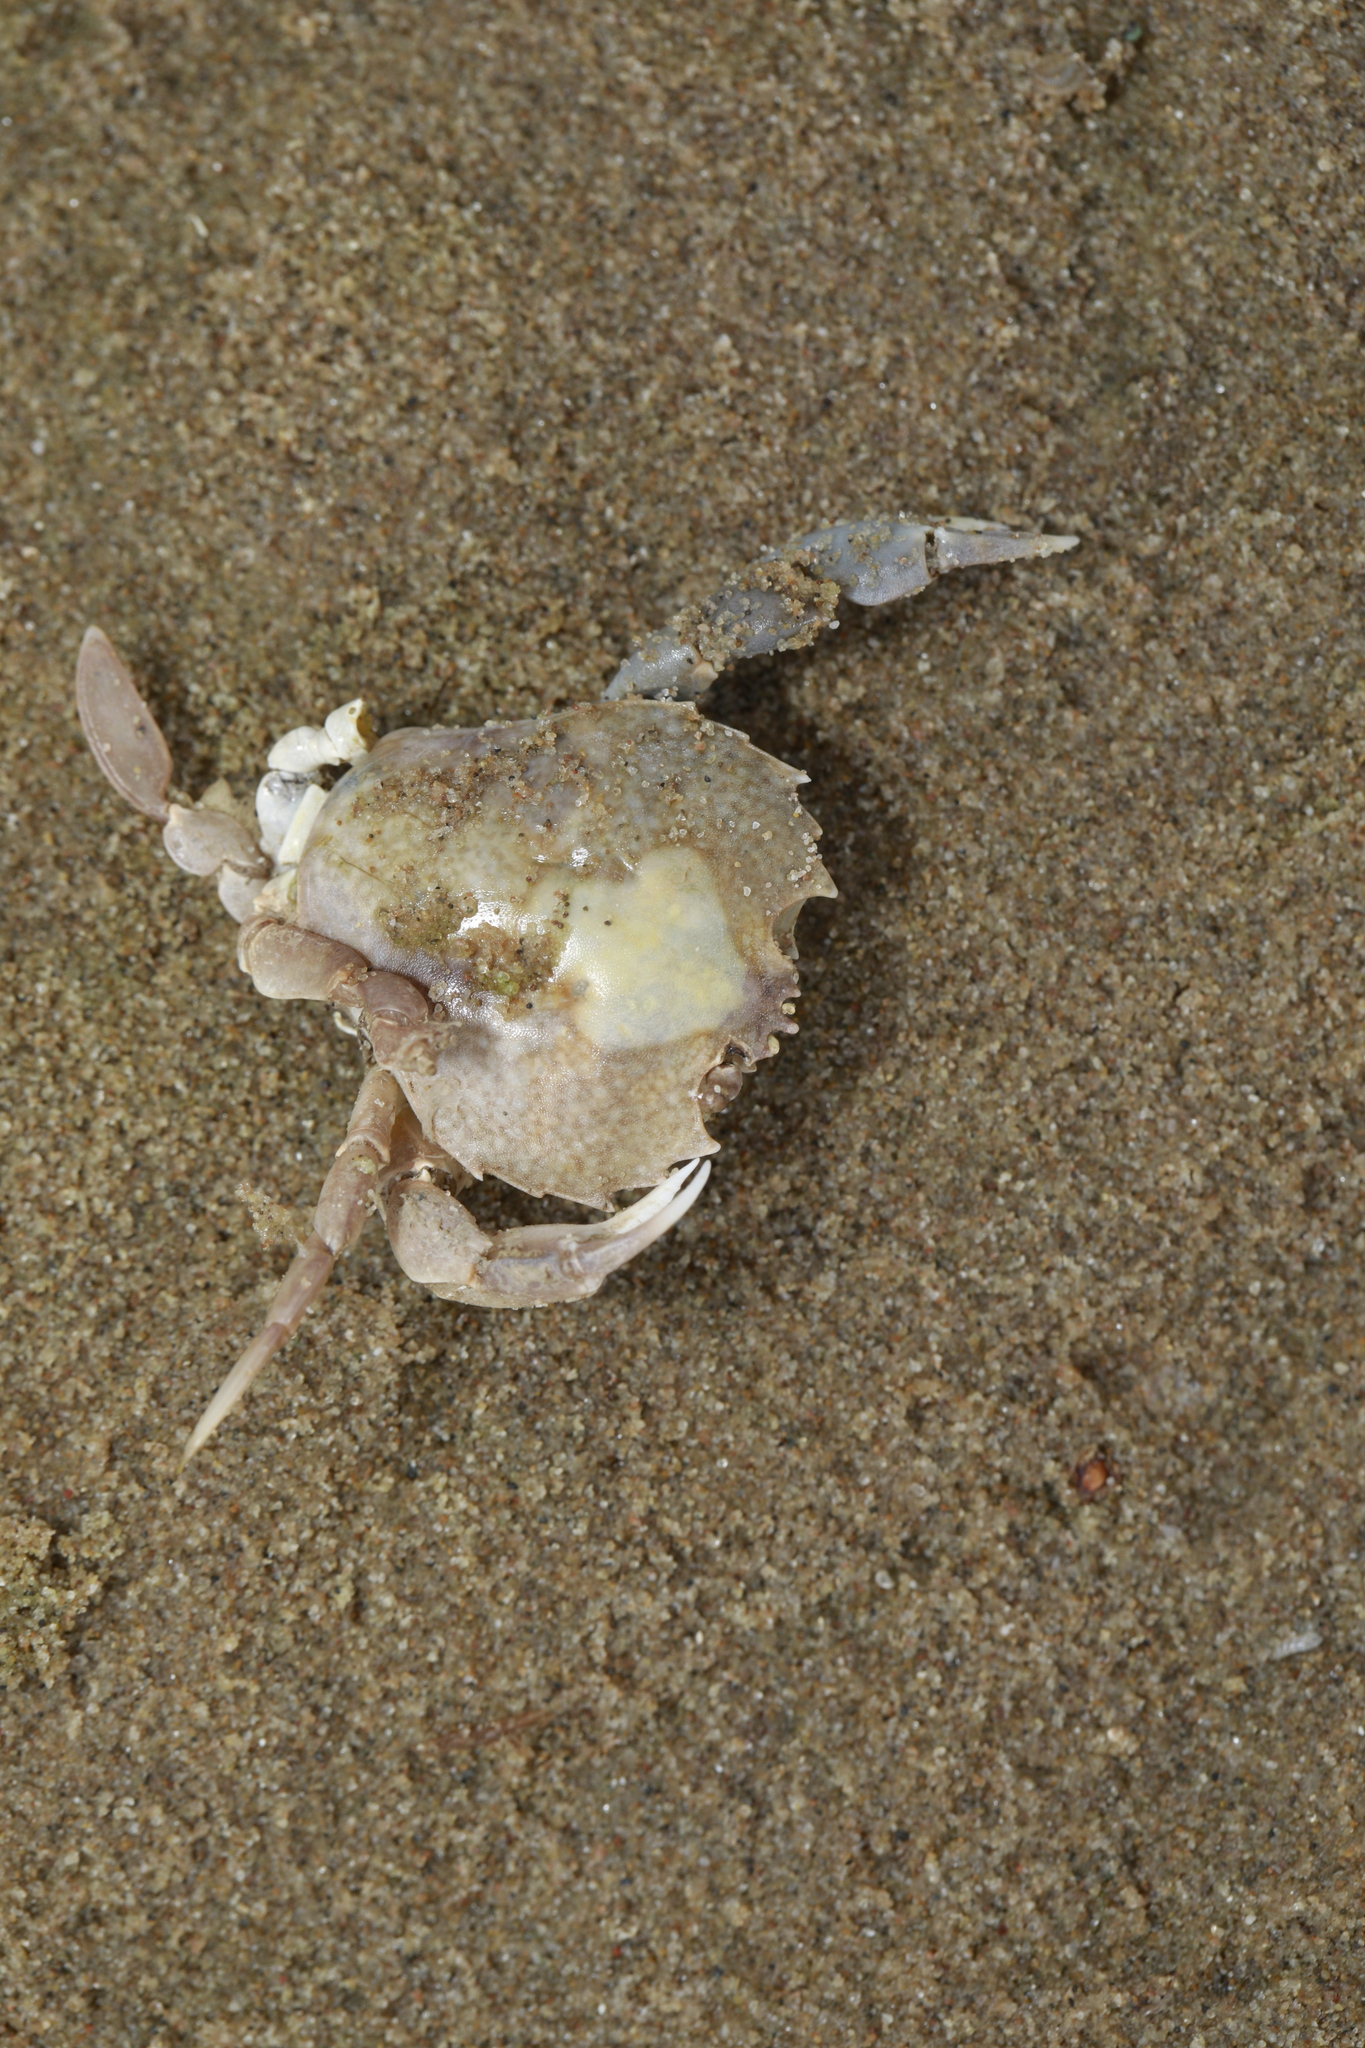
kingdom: Animalia
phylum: Arthropoda
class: Malacostraca
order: Decapoda
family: Carcinidae
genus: Portumnus
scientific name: Portumnus latipes
